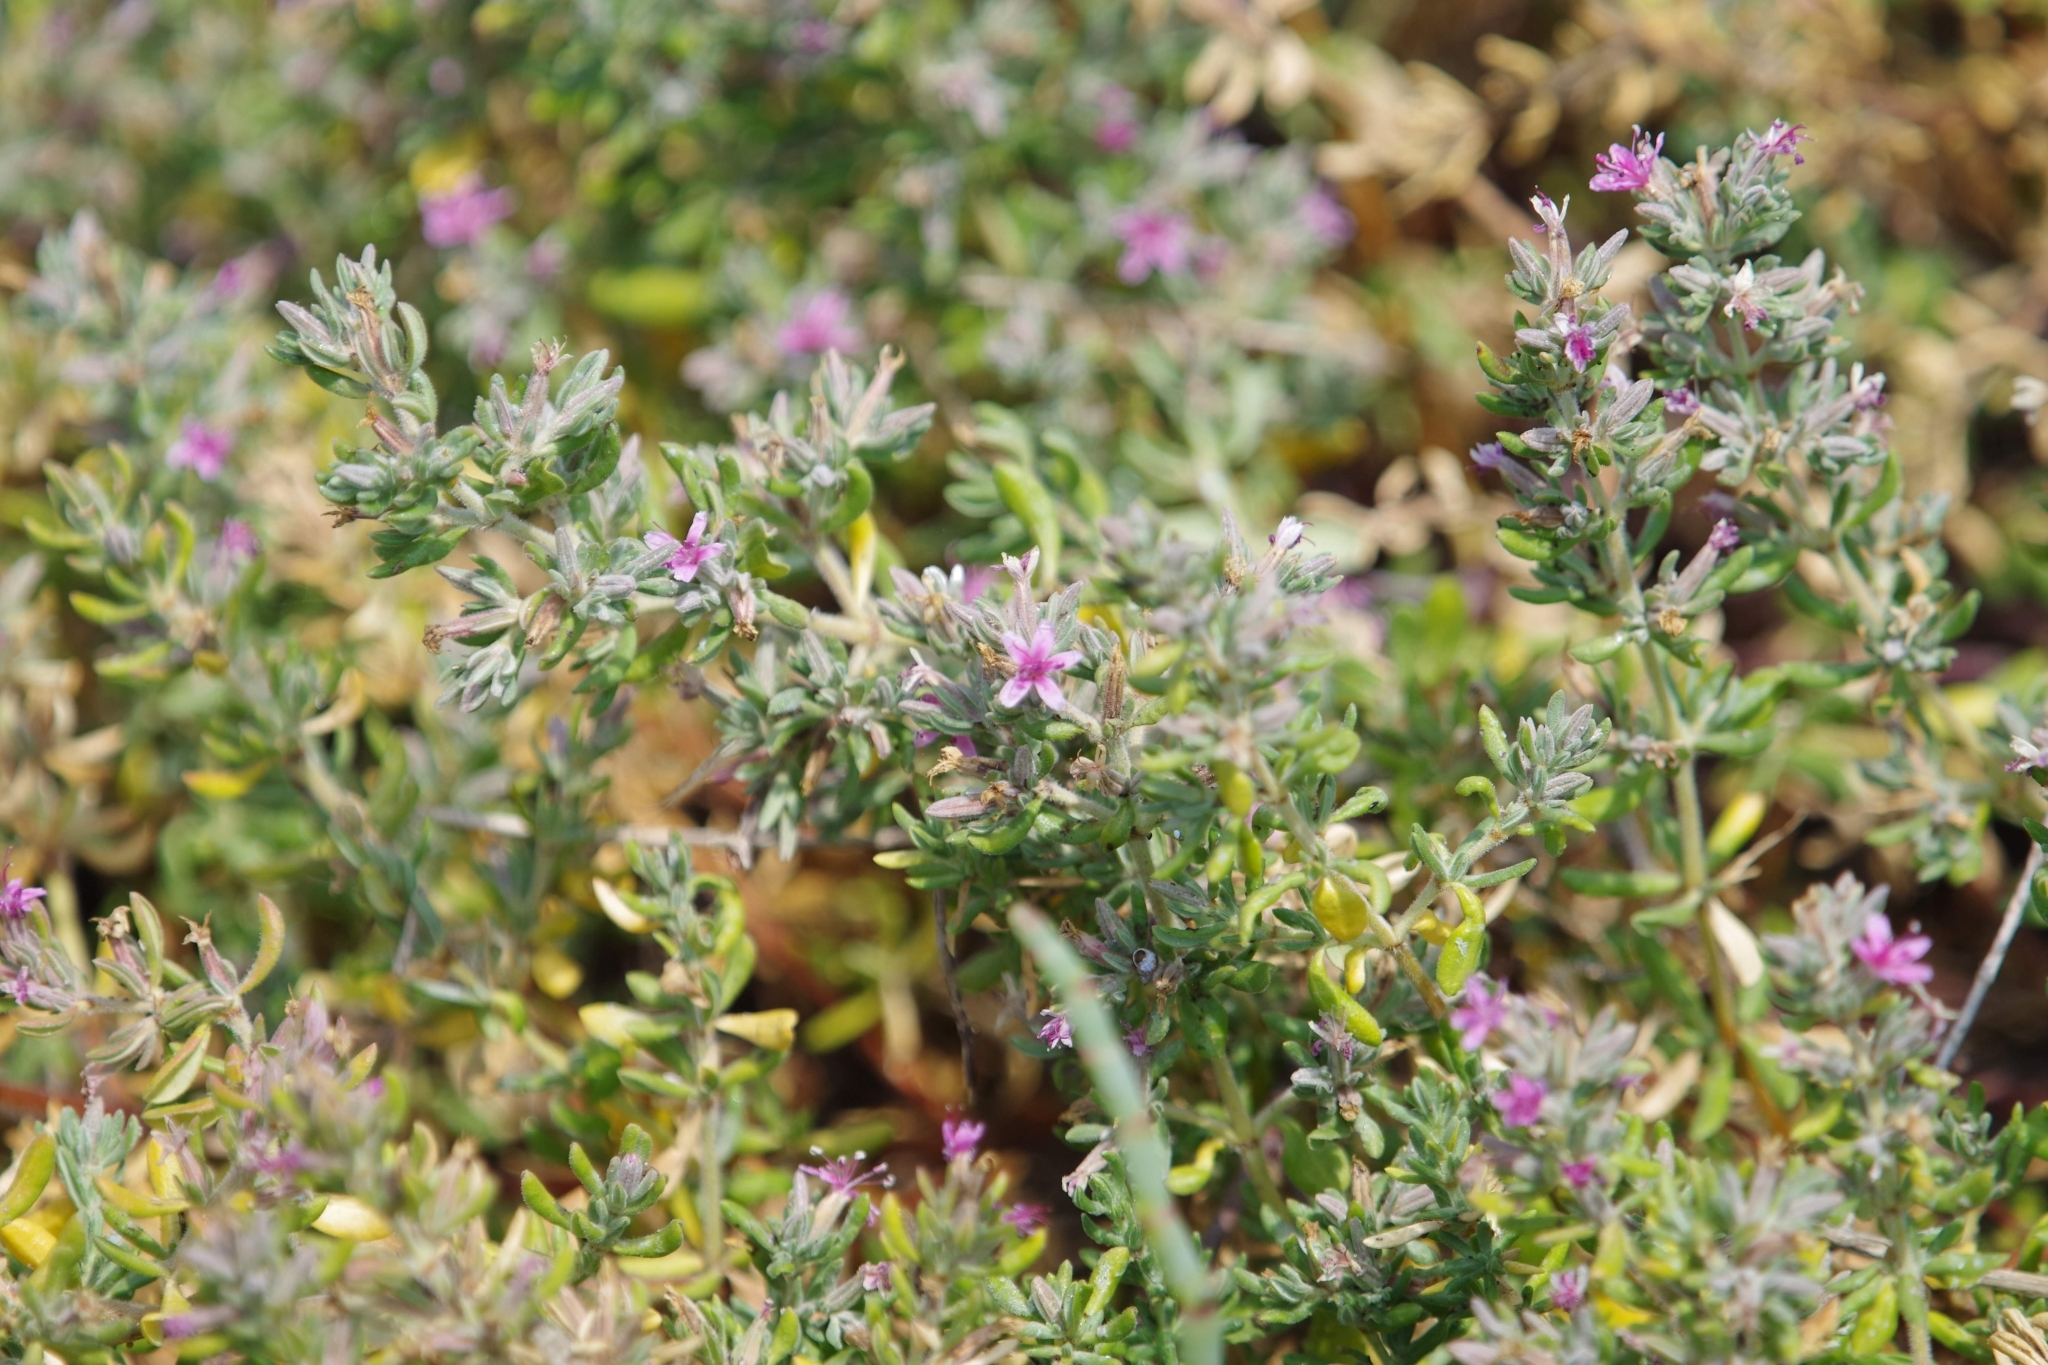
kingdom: Plantae
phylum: Tracheophyta
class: Magnoliopsida
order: Caryophyllales
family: Frankeniaceae
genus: Frankenia
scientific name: Frankenia salina
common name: Alkali seaheath
